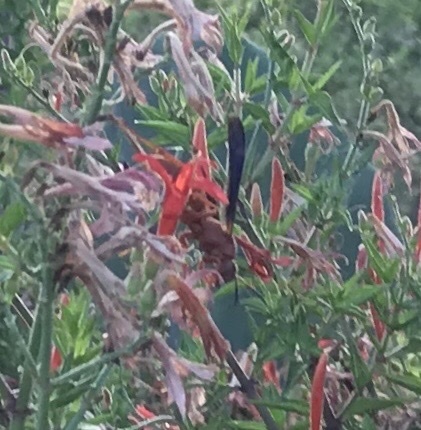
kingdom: Animalia
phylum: Arthropoda
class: Insecta
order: Hymenoptera
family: Eumenidae
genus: Polistes
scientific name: Polistes carolina
